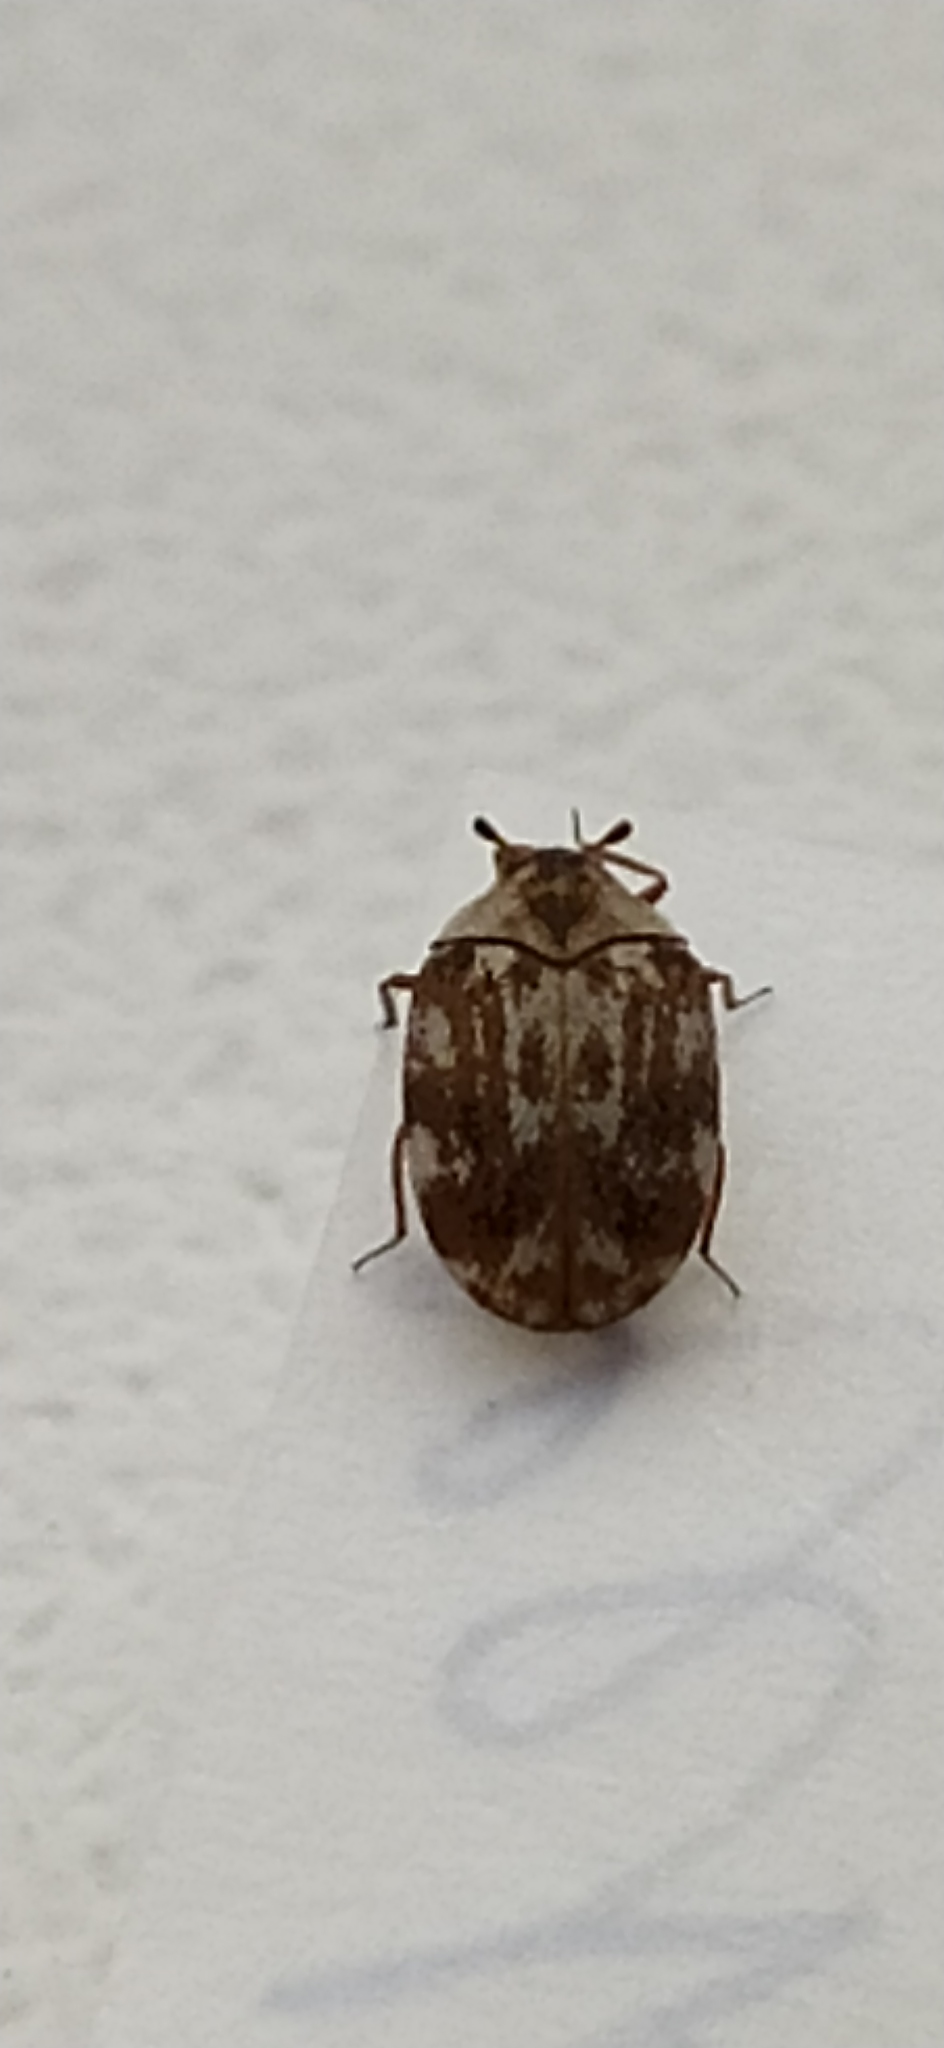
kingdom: Animalia
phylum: Arthropoda
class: Insecta
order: Coleoptera
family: Dermestidae
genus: Anthrenus
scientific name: Anthrenus picturatus
